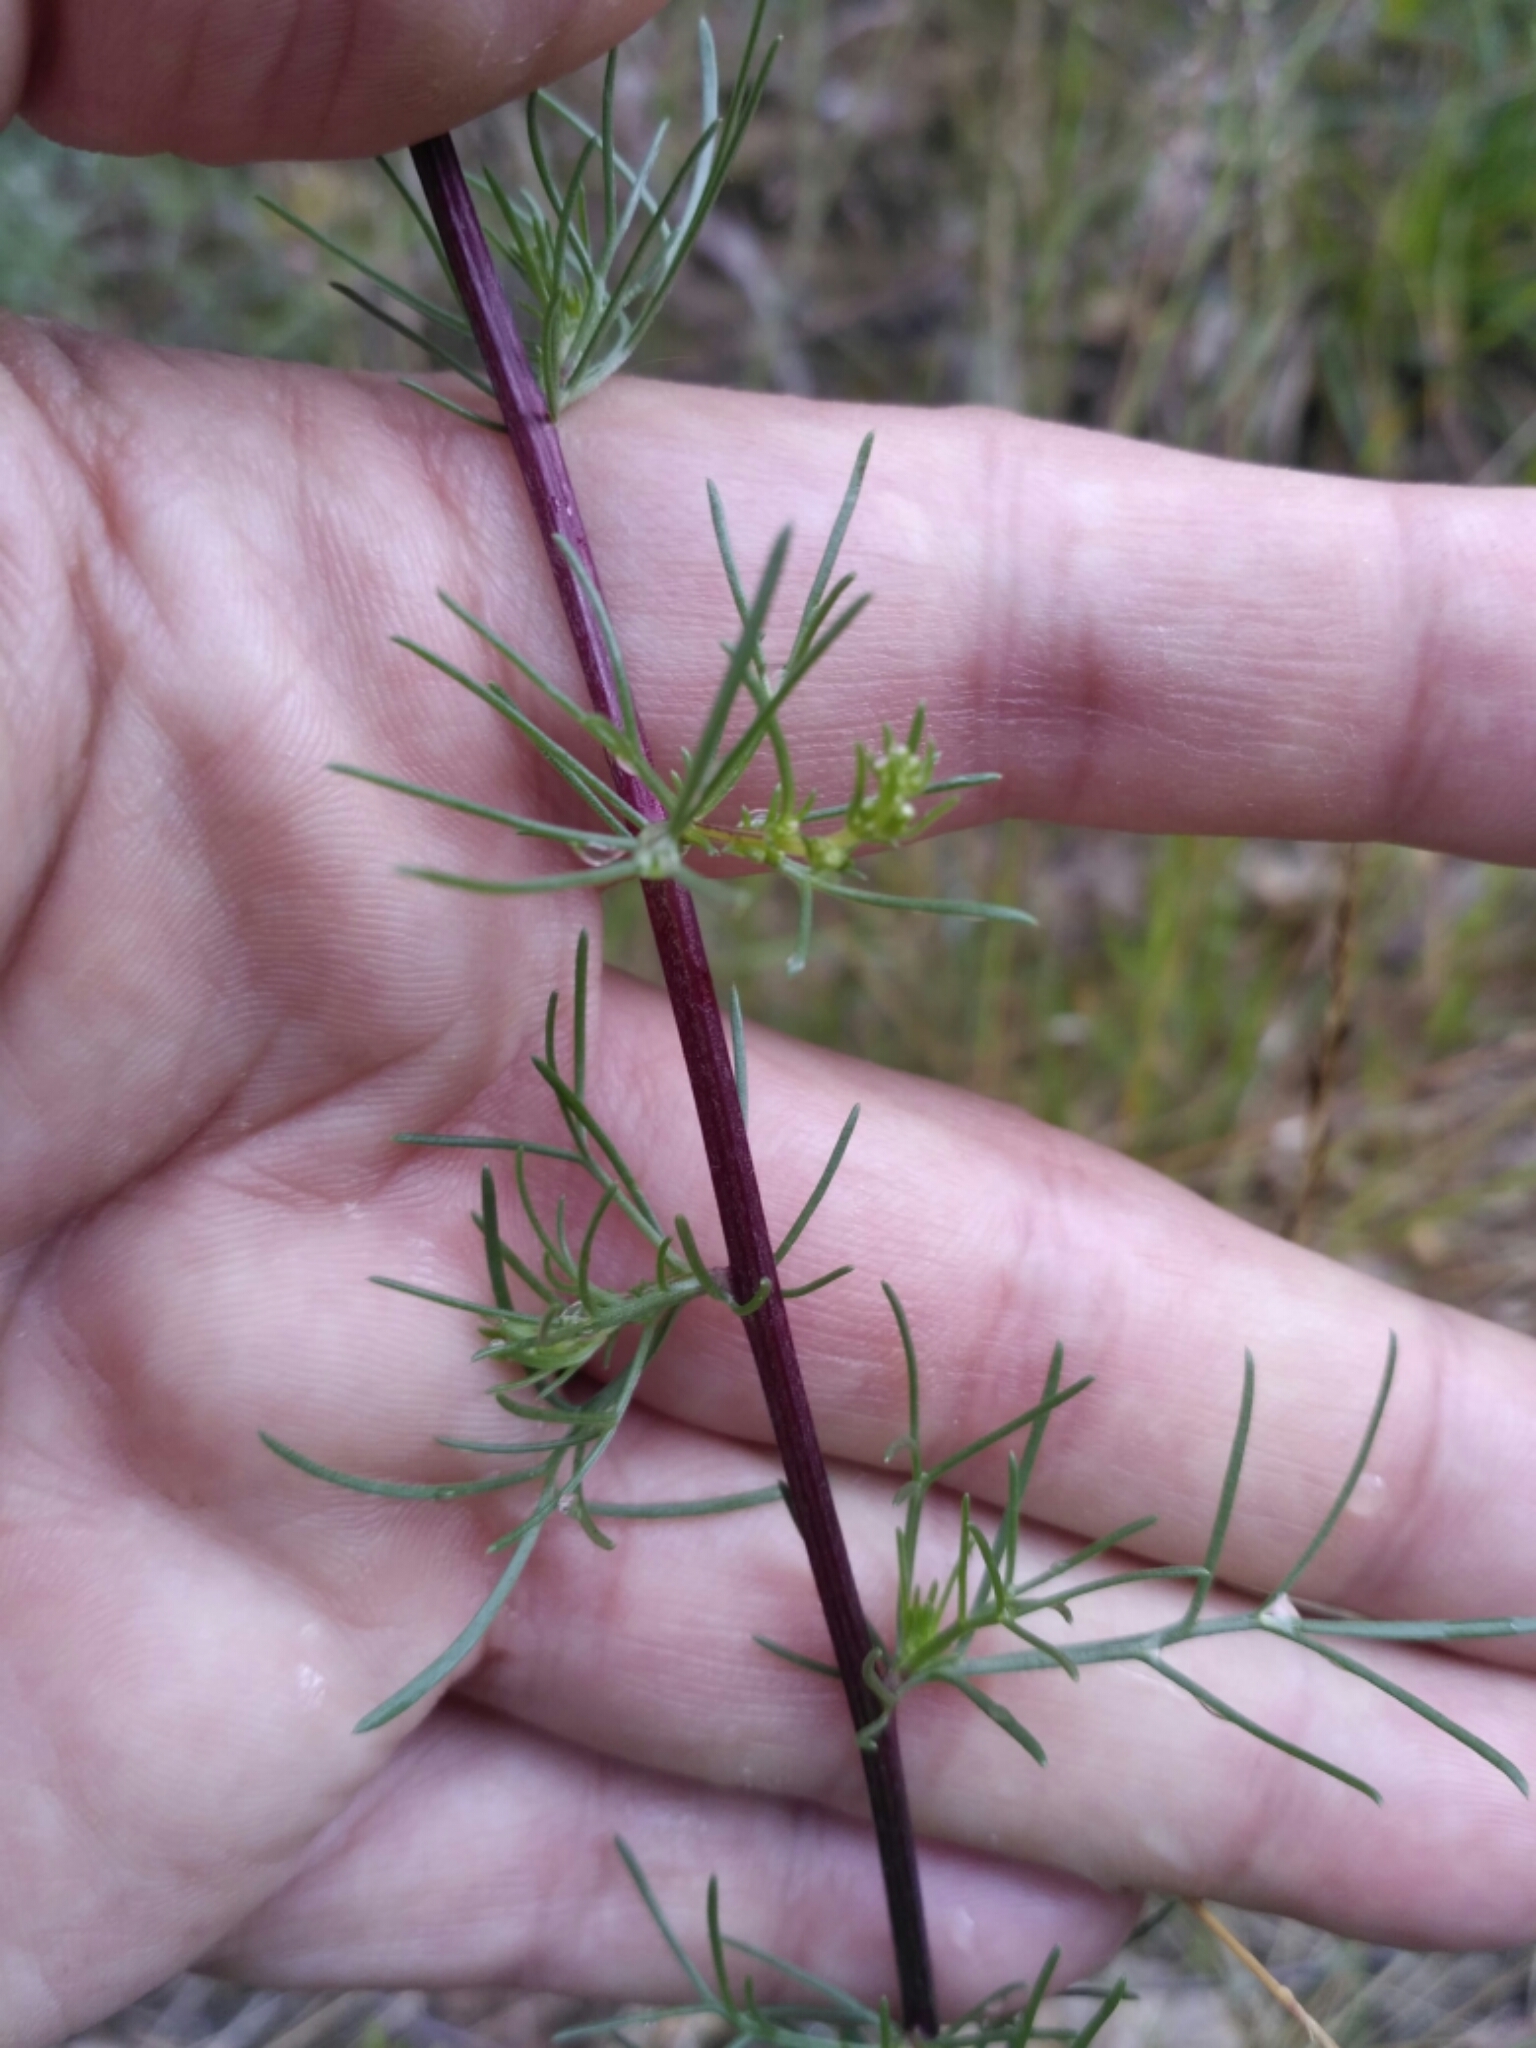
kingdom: Plantae
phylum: Tracheophyta
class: Magnoliopsida
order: Asterales
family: Asteraceae
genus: Artemisia
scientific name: Artemisia campestris
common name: Field wormwood
